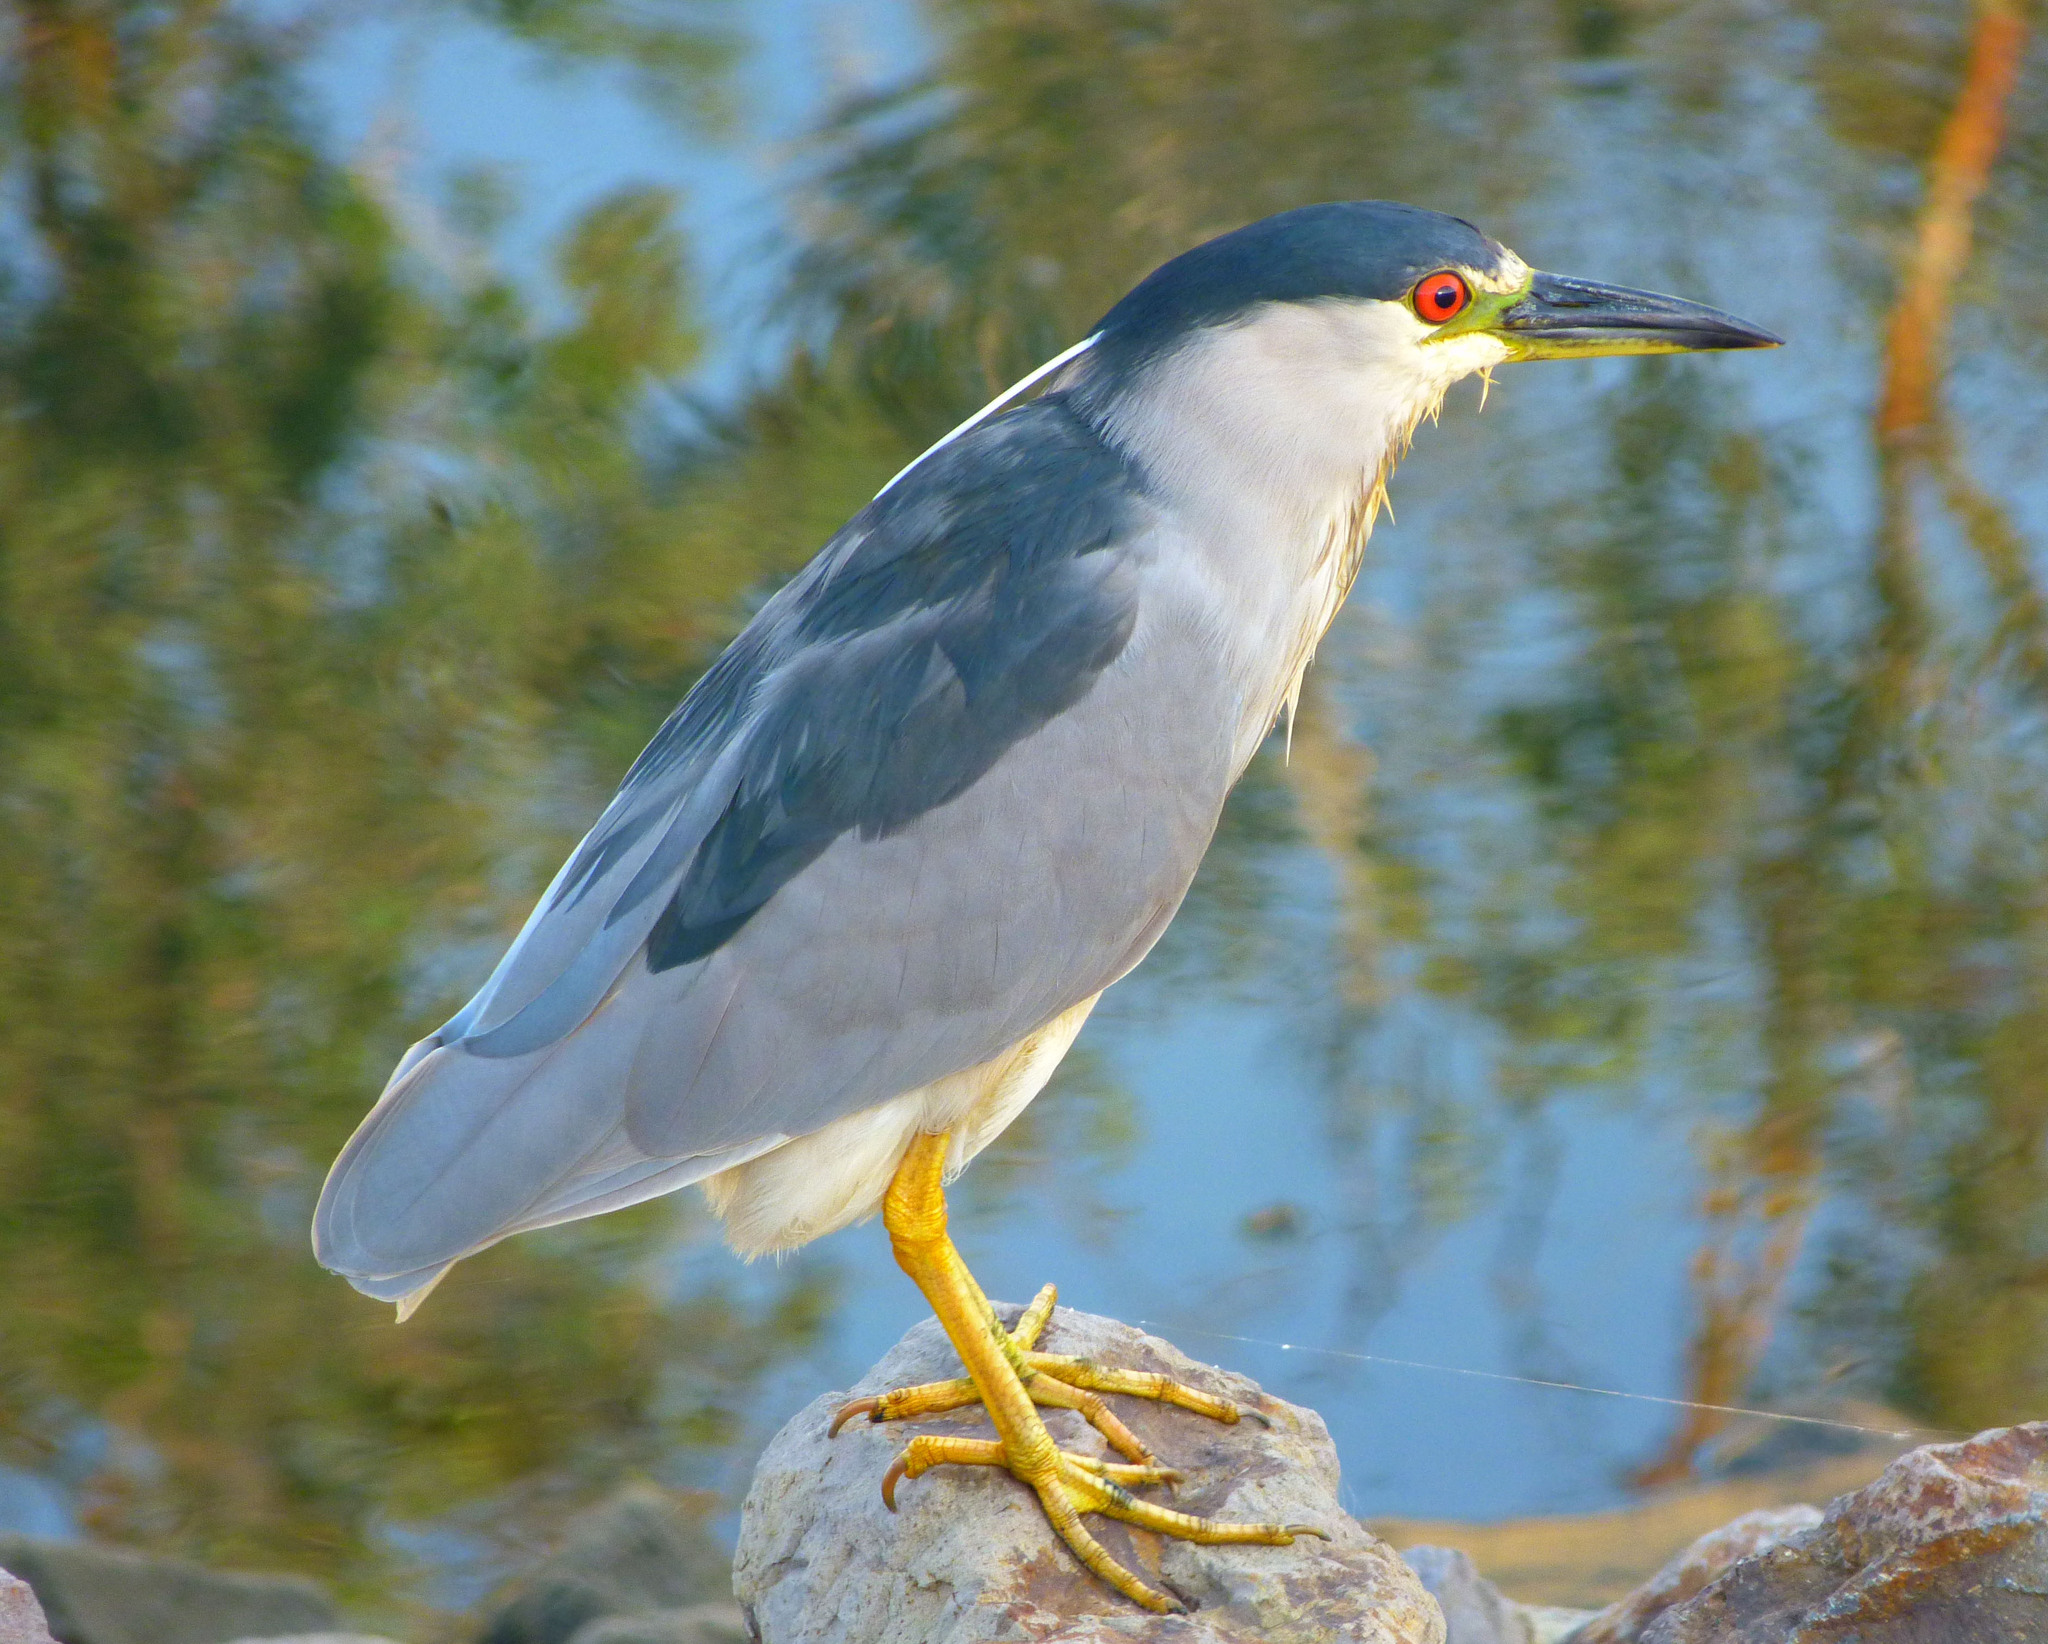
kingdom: Animalia
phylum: Chordata
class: Aves
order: Pelecaniformes
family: Ardeidae
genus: Nycticorax
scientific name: Nycticorax nycticorax
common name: Black-crowned night heron
